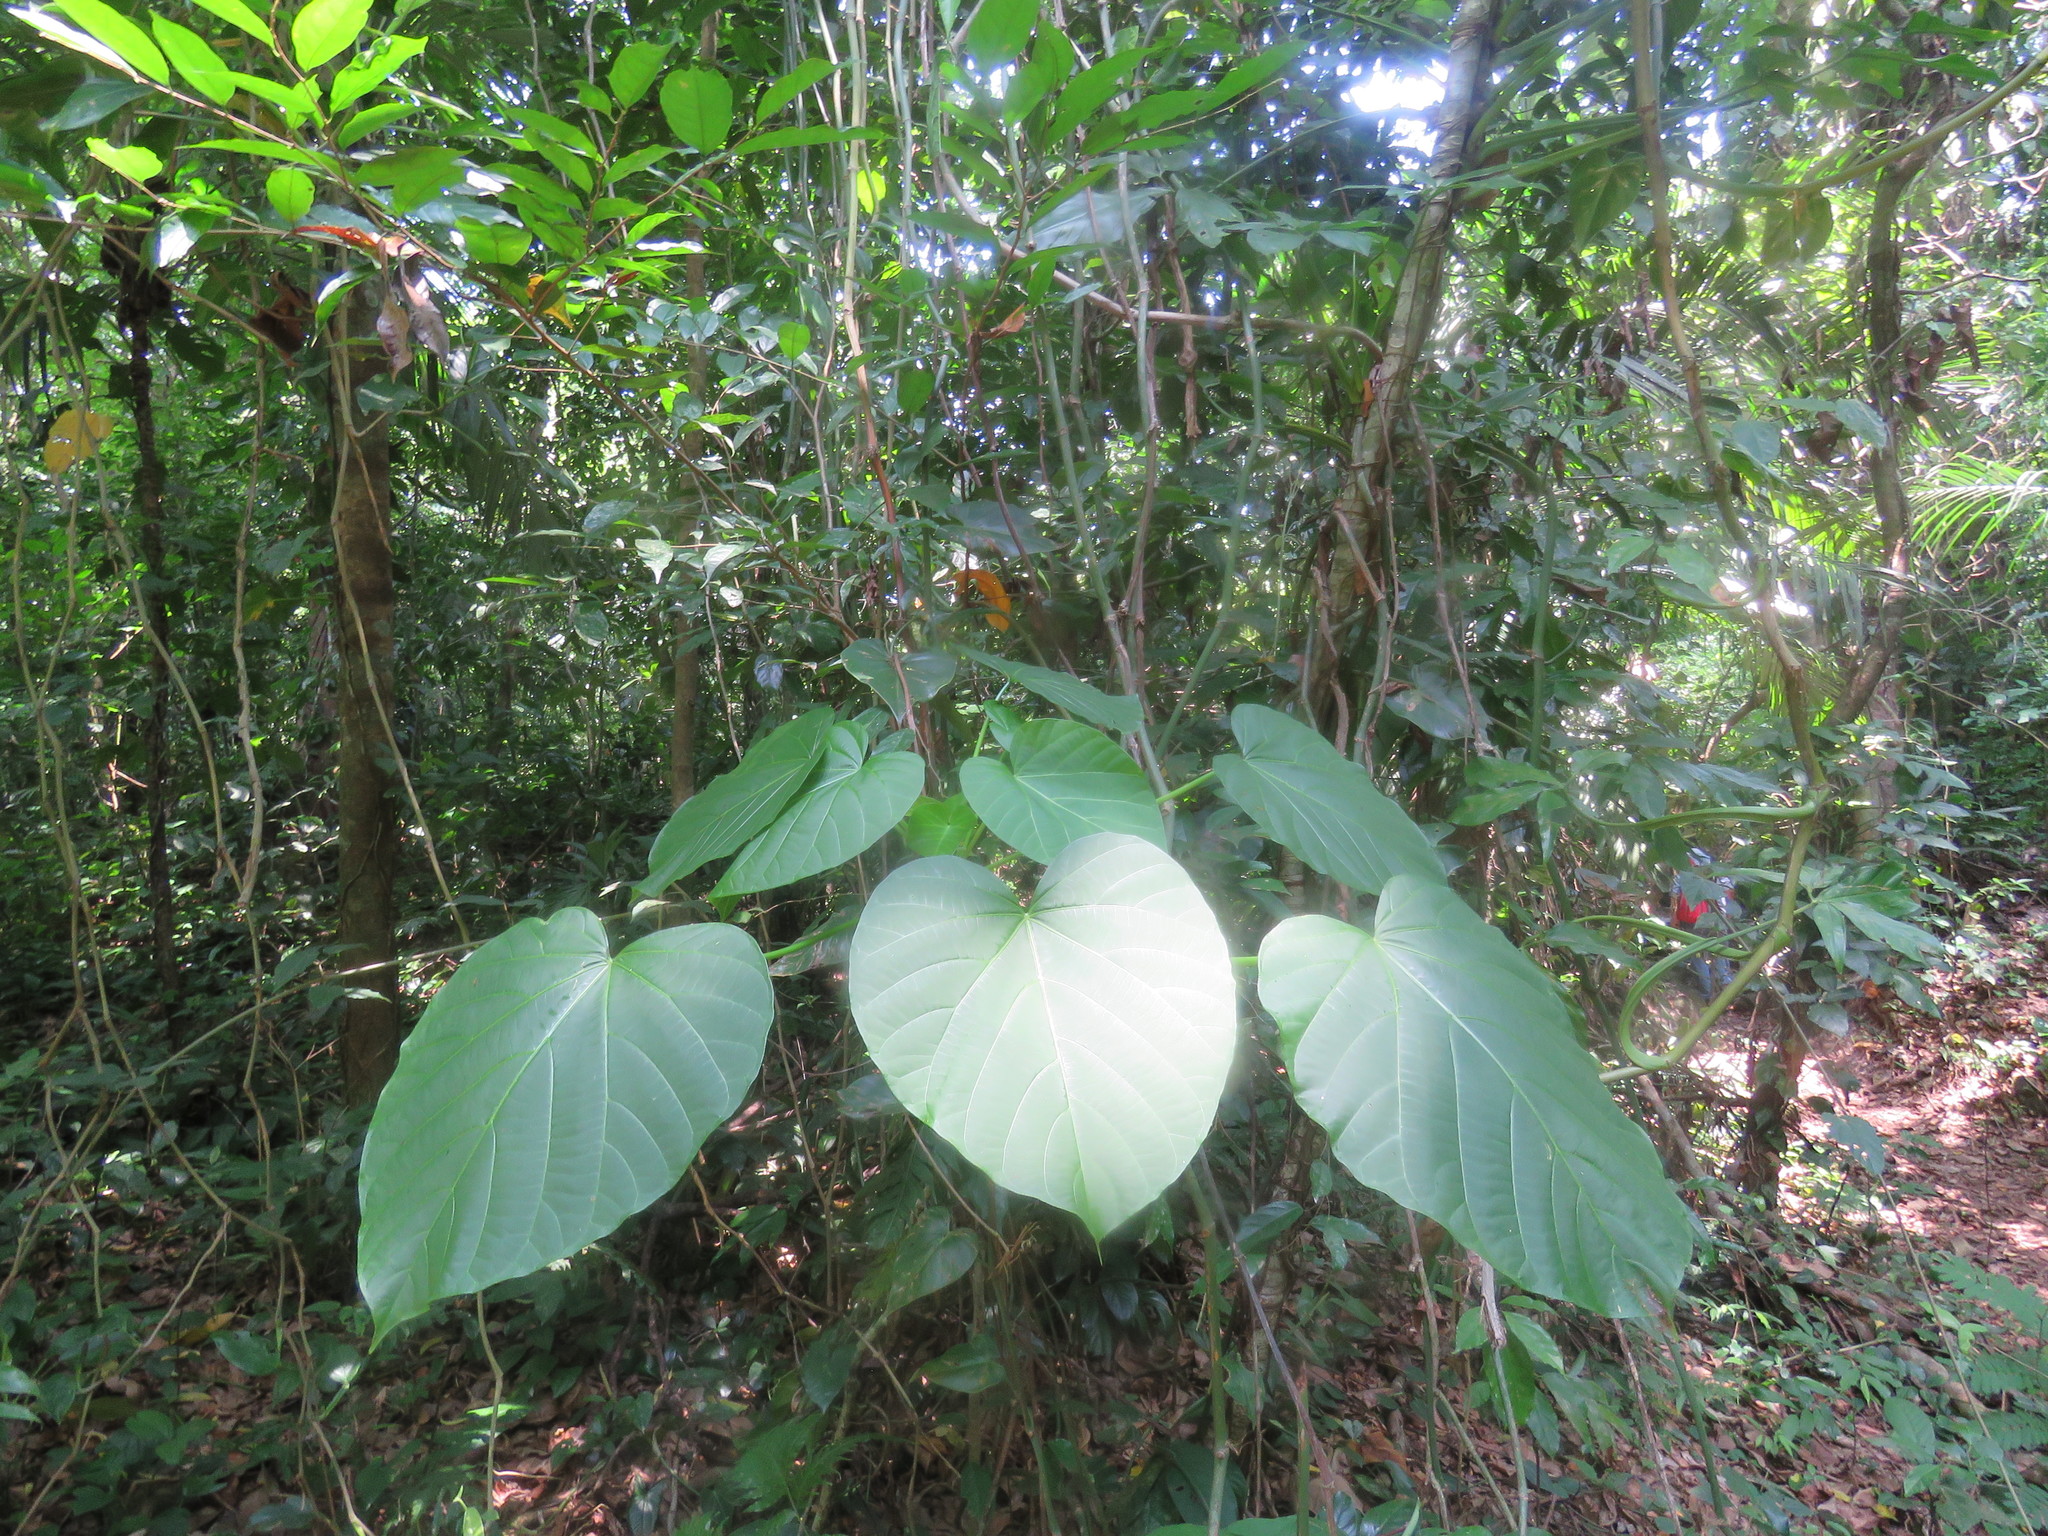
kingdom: Plantae
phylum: Tracheophyta
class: Magnoliopsida
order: Malpighiales
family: Euphorbiaceae
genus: Omphalea
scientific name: Omphalea oleifera
